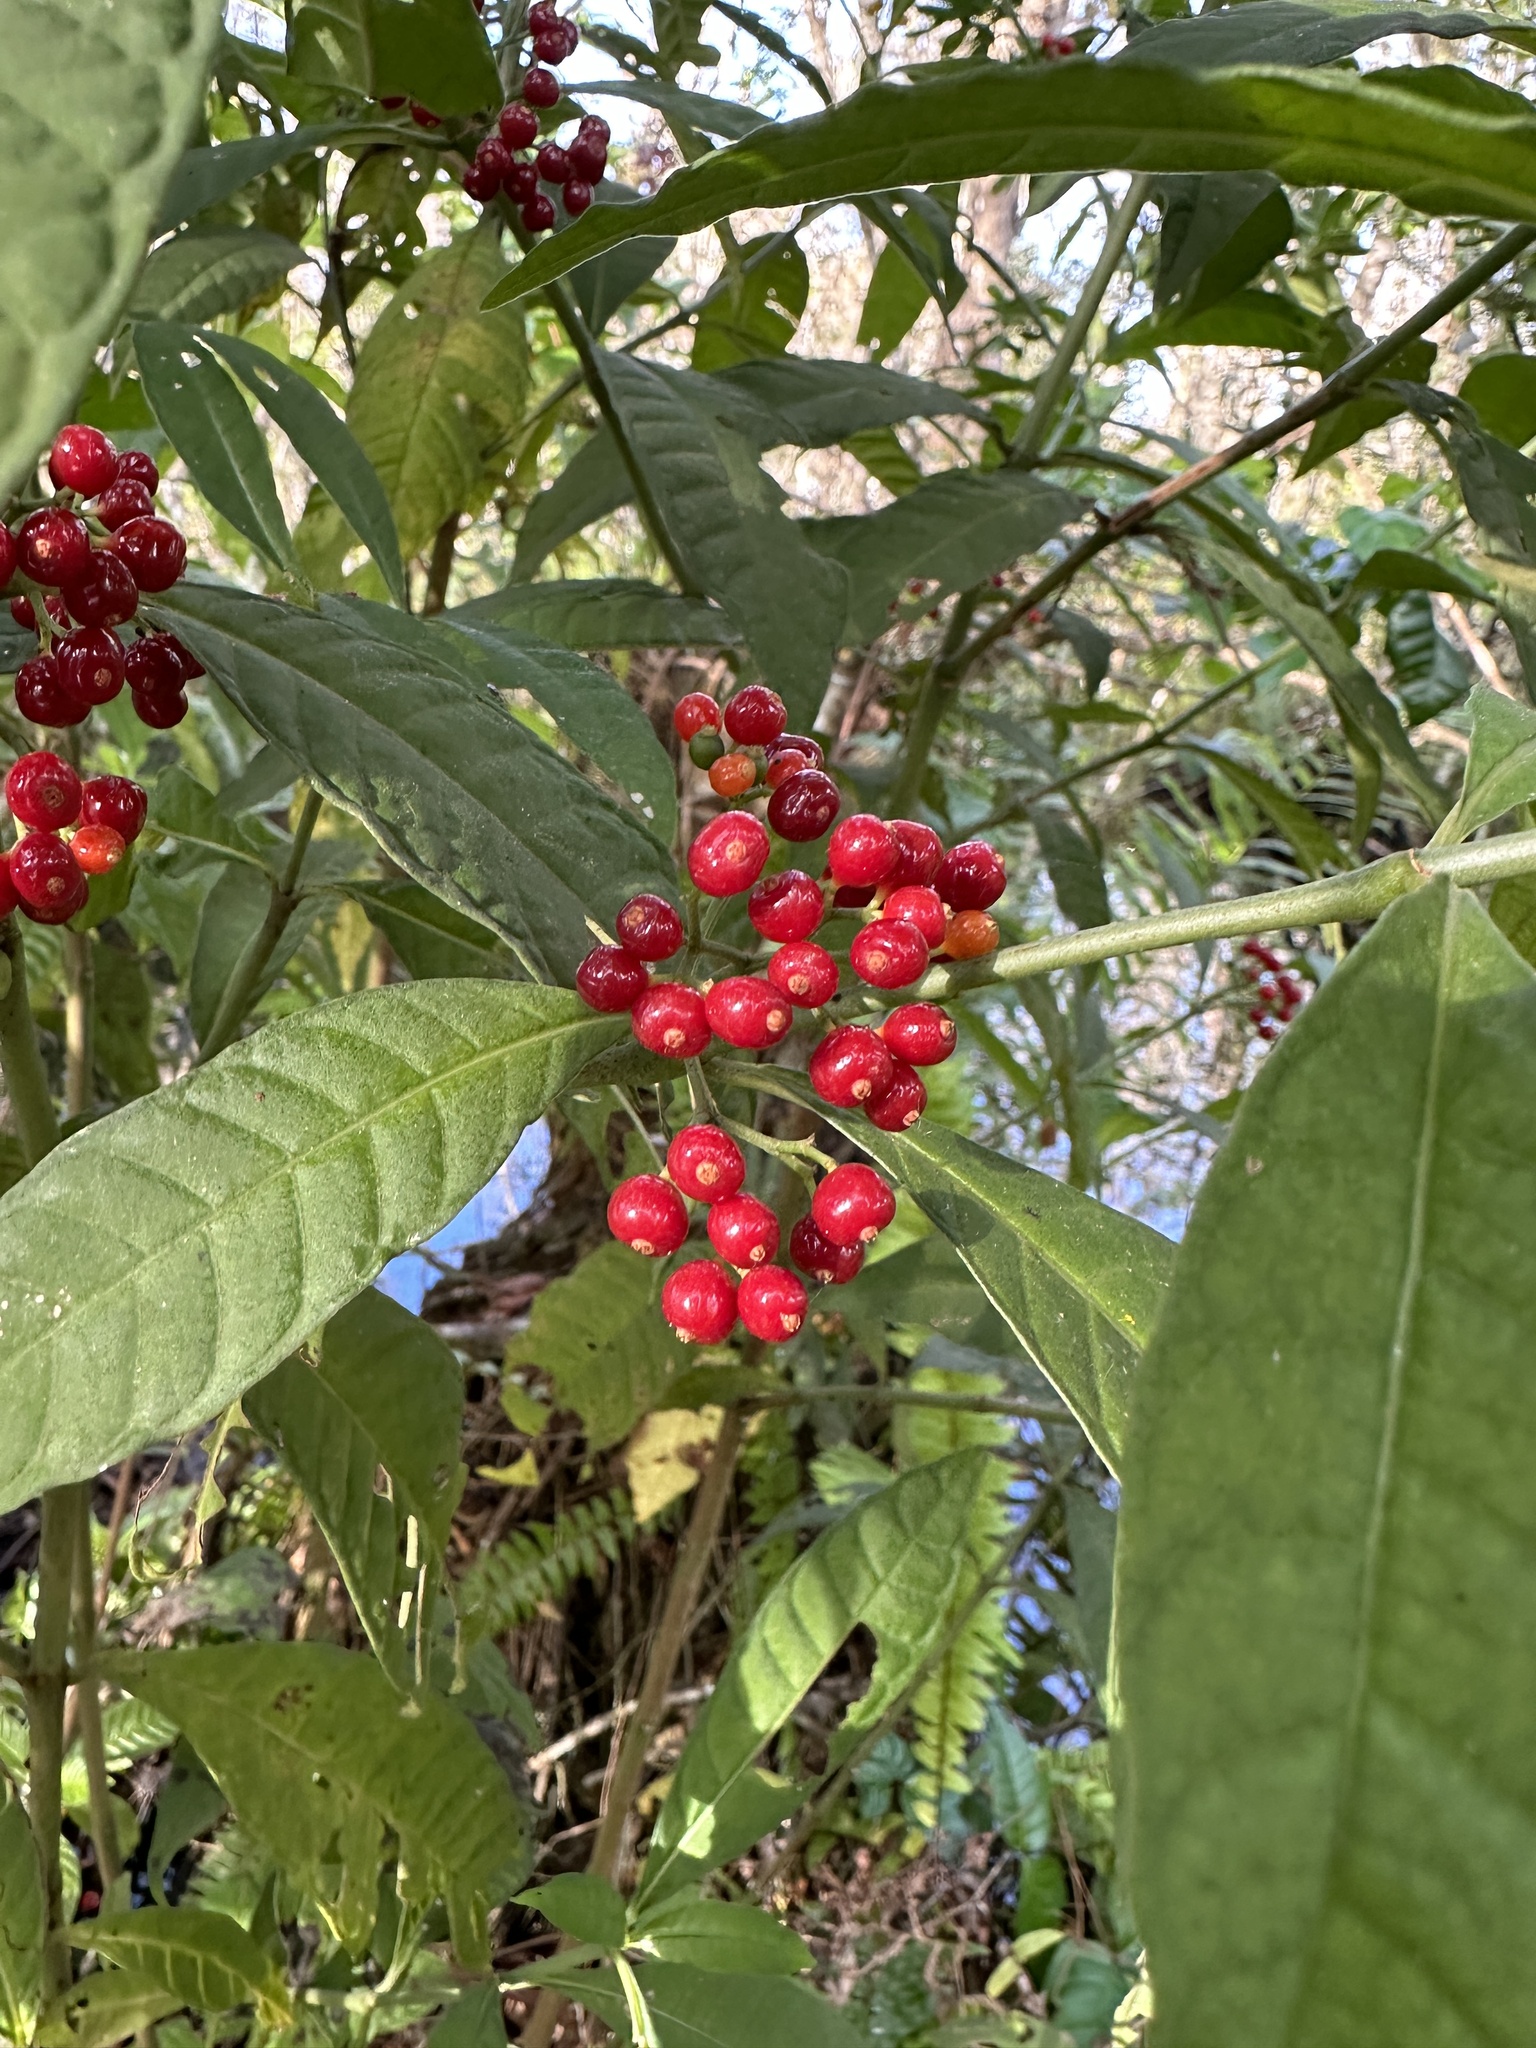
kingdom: Plantae
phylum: Tracheophyta
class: Magnoliopsida
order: Gentianales
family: Rubiaceae
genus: Psychotria
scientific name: Psychotria tenuifolia
